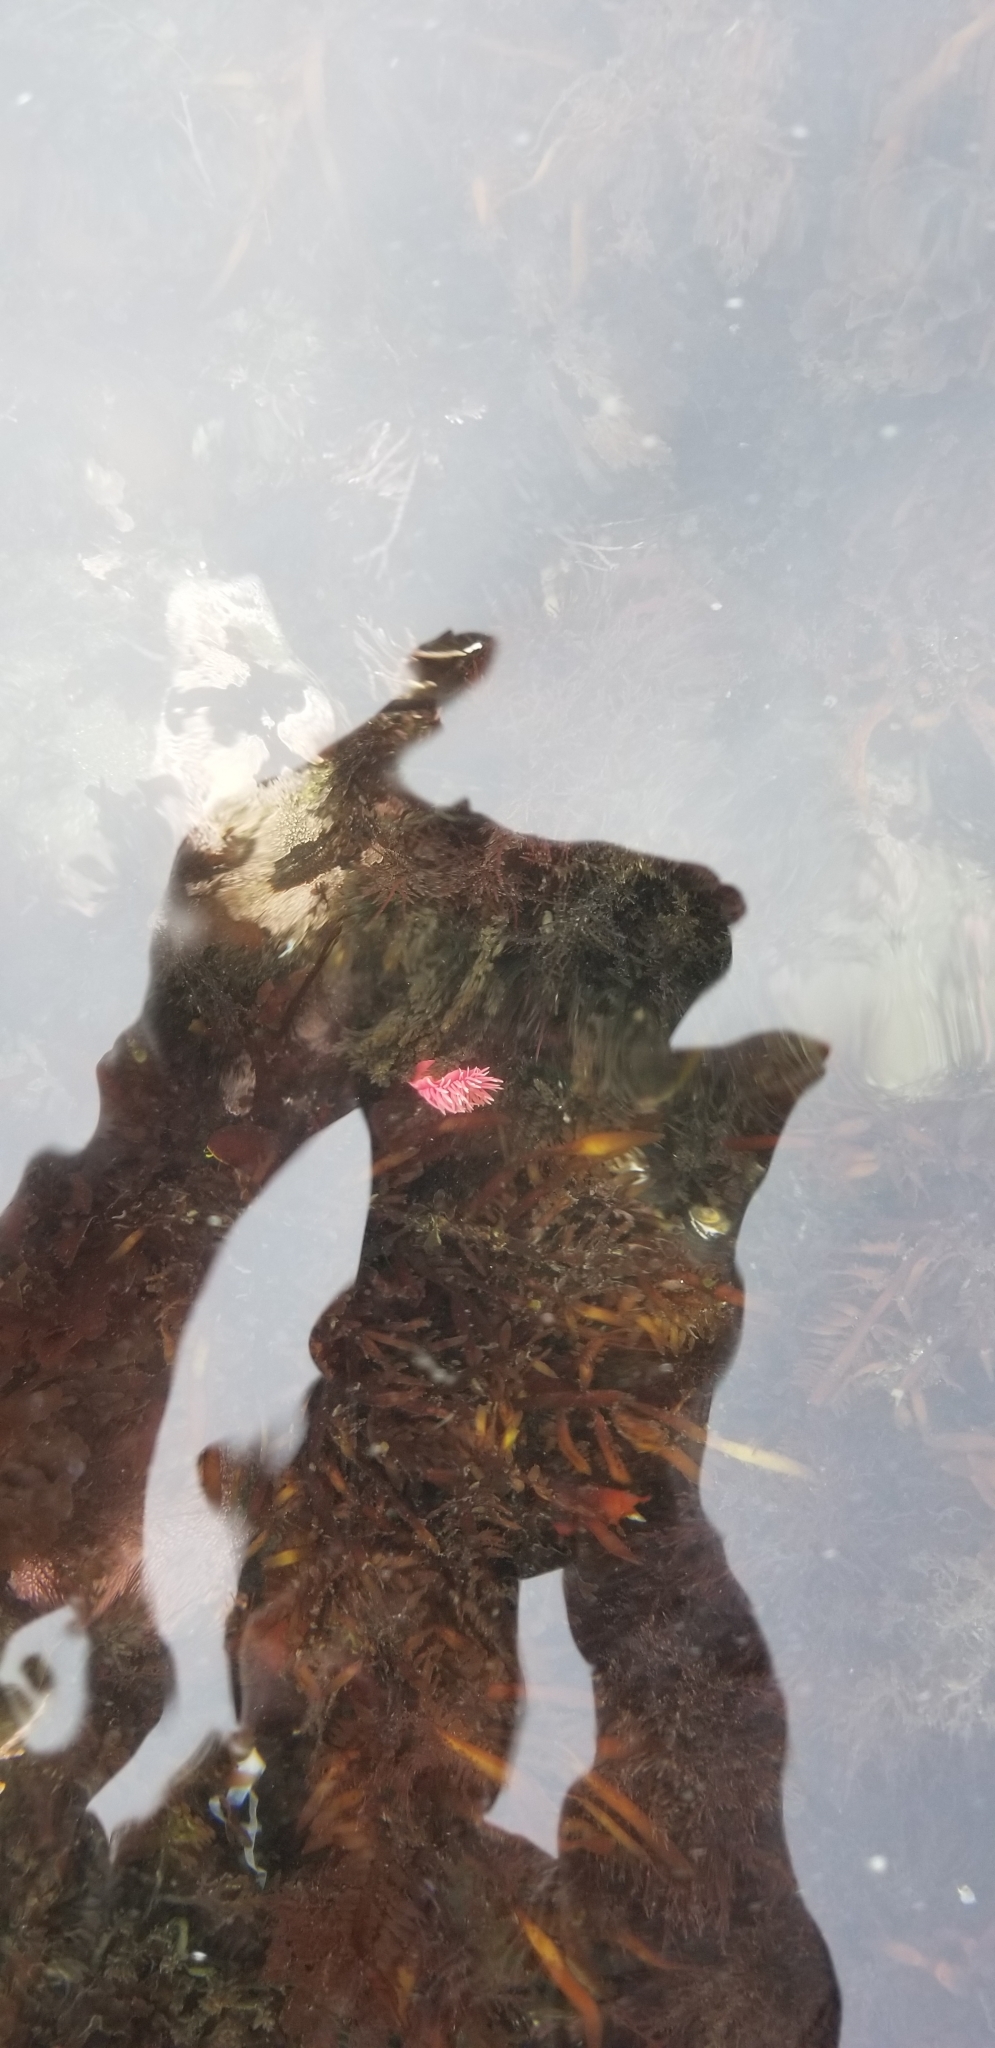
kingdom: Animalia
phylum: Mollusca
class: Gastropoda
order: Nudibranchia
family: Goniodorididae
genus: Okenia
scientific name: Okenia
